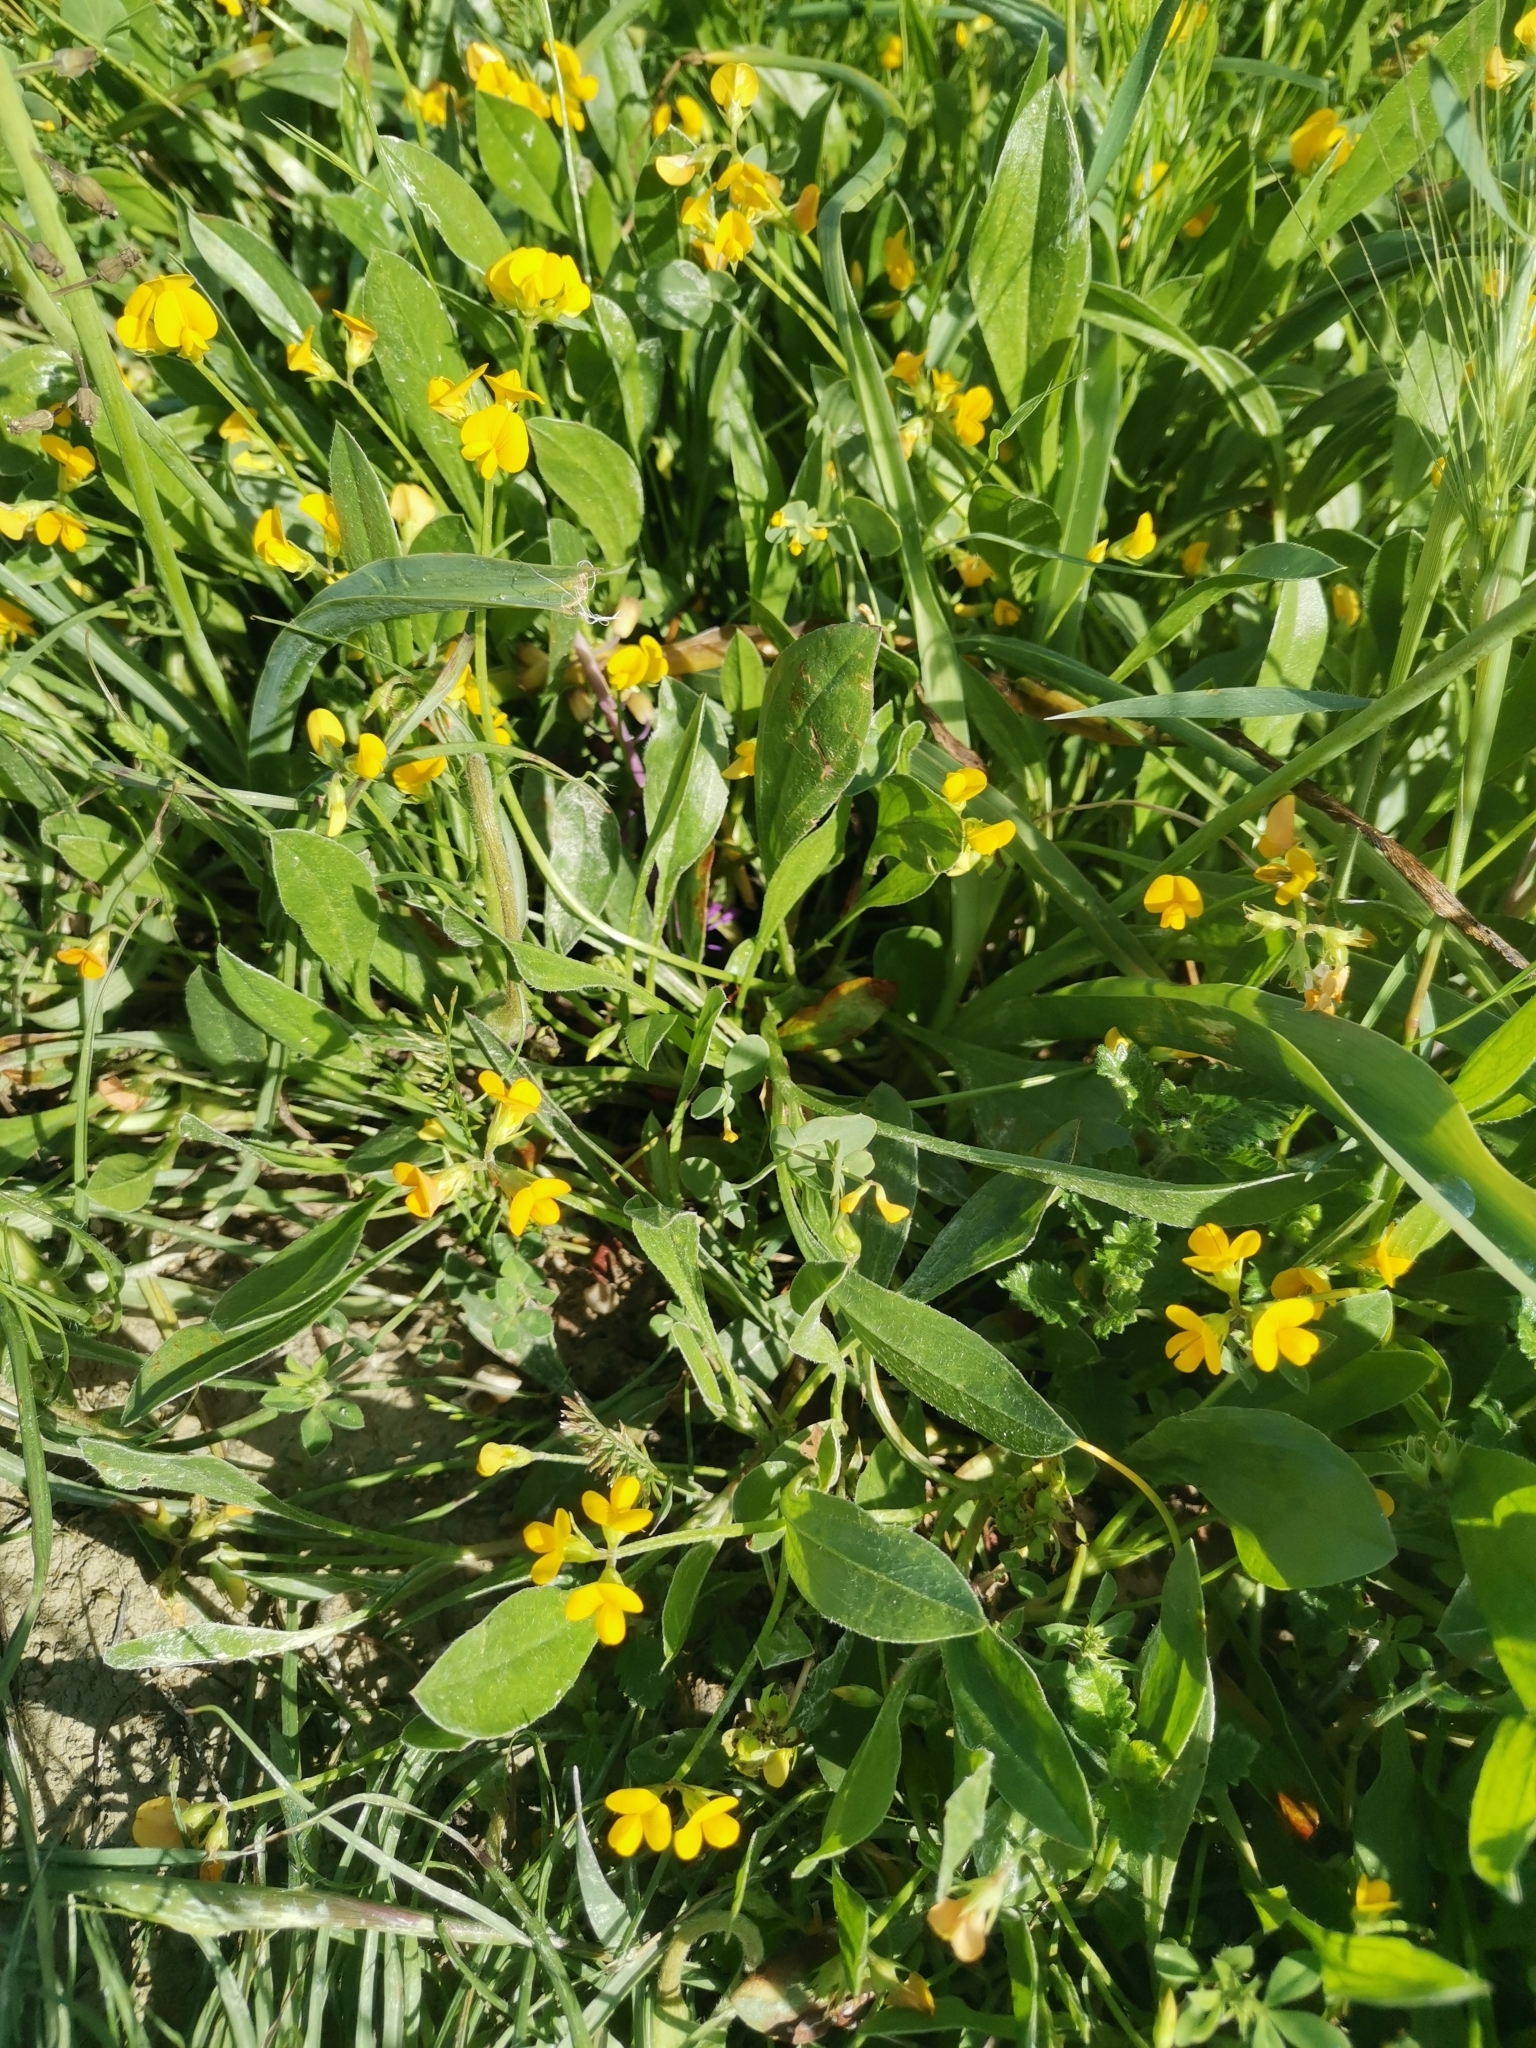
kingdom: Plantae
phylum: Tracheophyta
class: Magnoliopsida
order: Fabales
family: Fabaceae
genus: Scorpiurus
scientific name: Scorpiurus muricatus
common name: Caterpillar-plant
